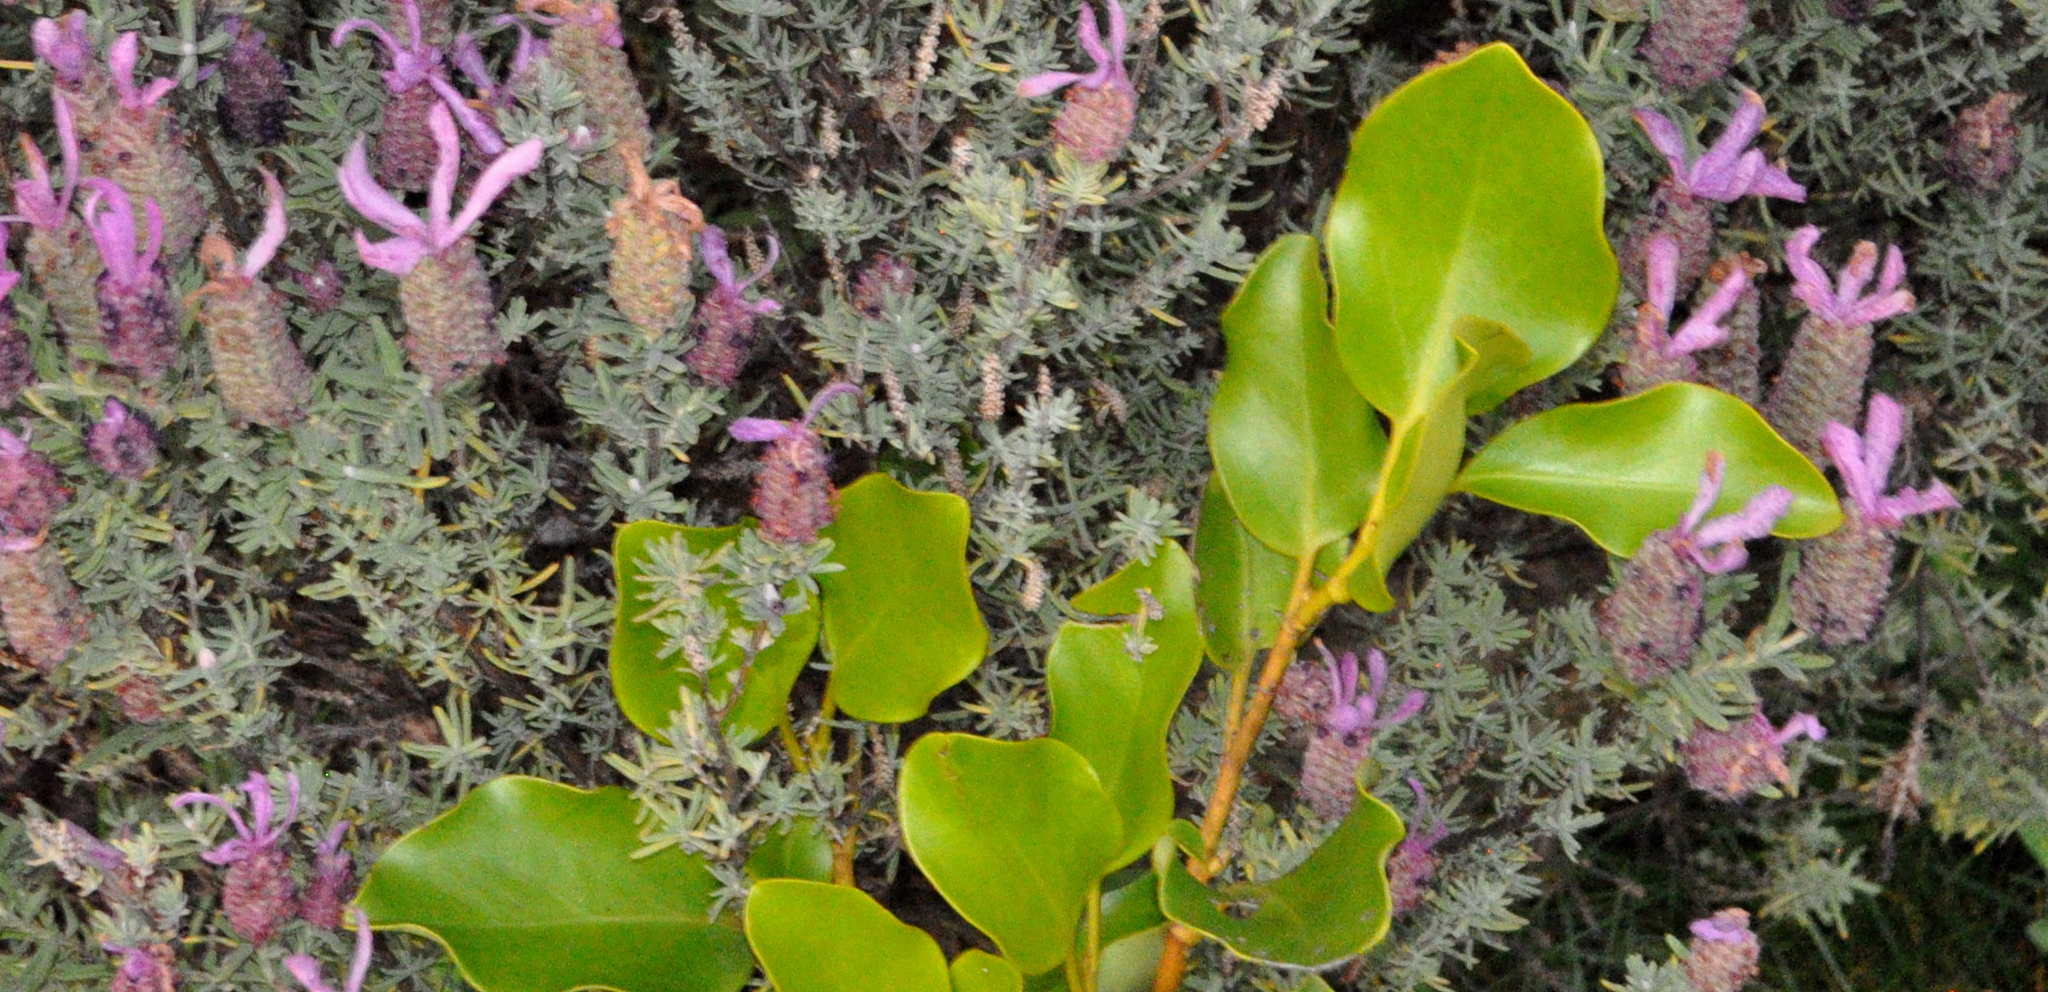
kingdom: Plantae
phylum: Tracheophyta
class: Magnoliopsida
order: Apiales
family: Griseliniaceae
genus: Griselinia
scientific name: Griselinia littoralis
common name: New zealand broadleaf
